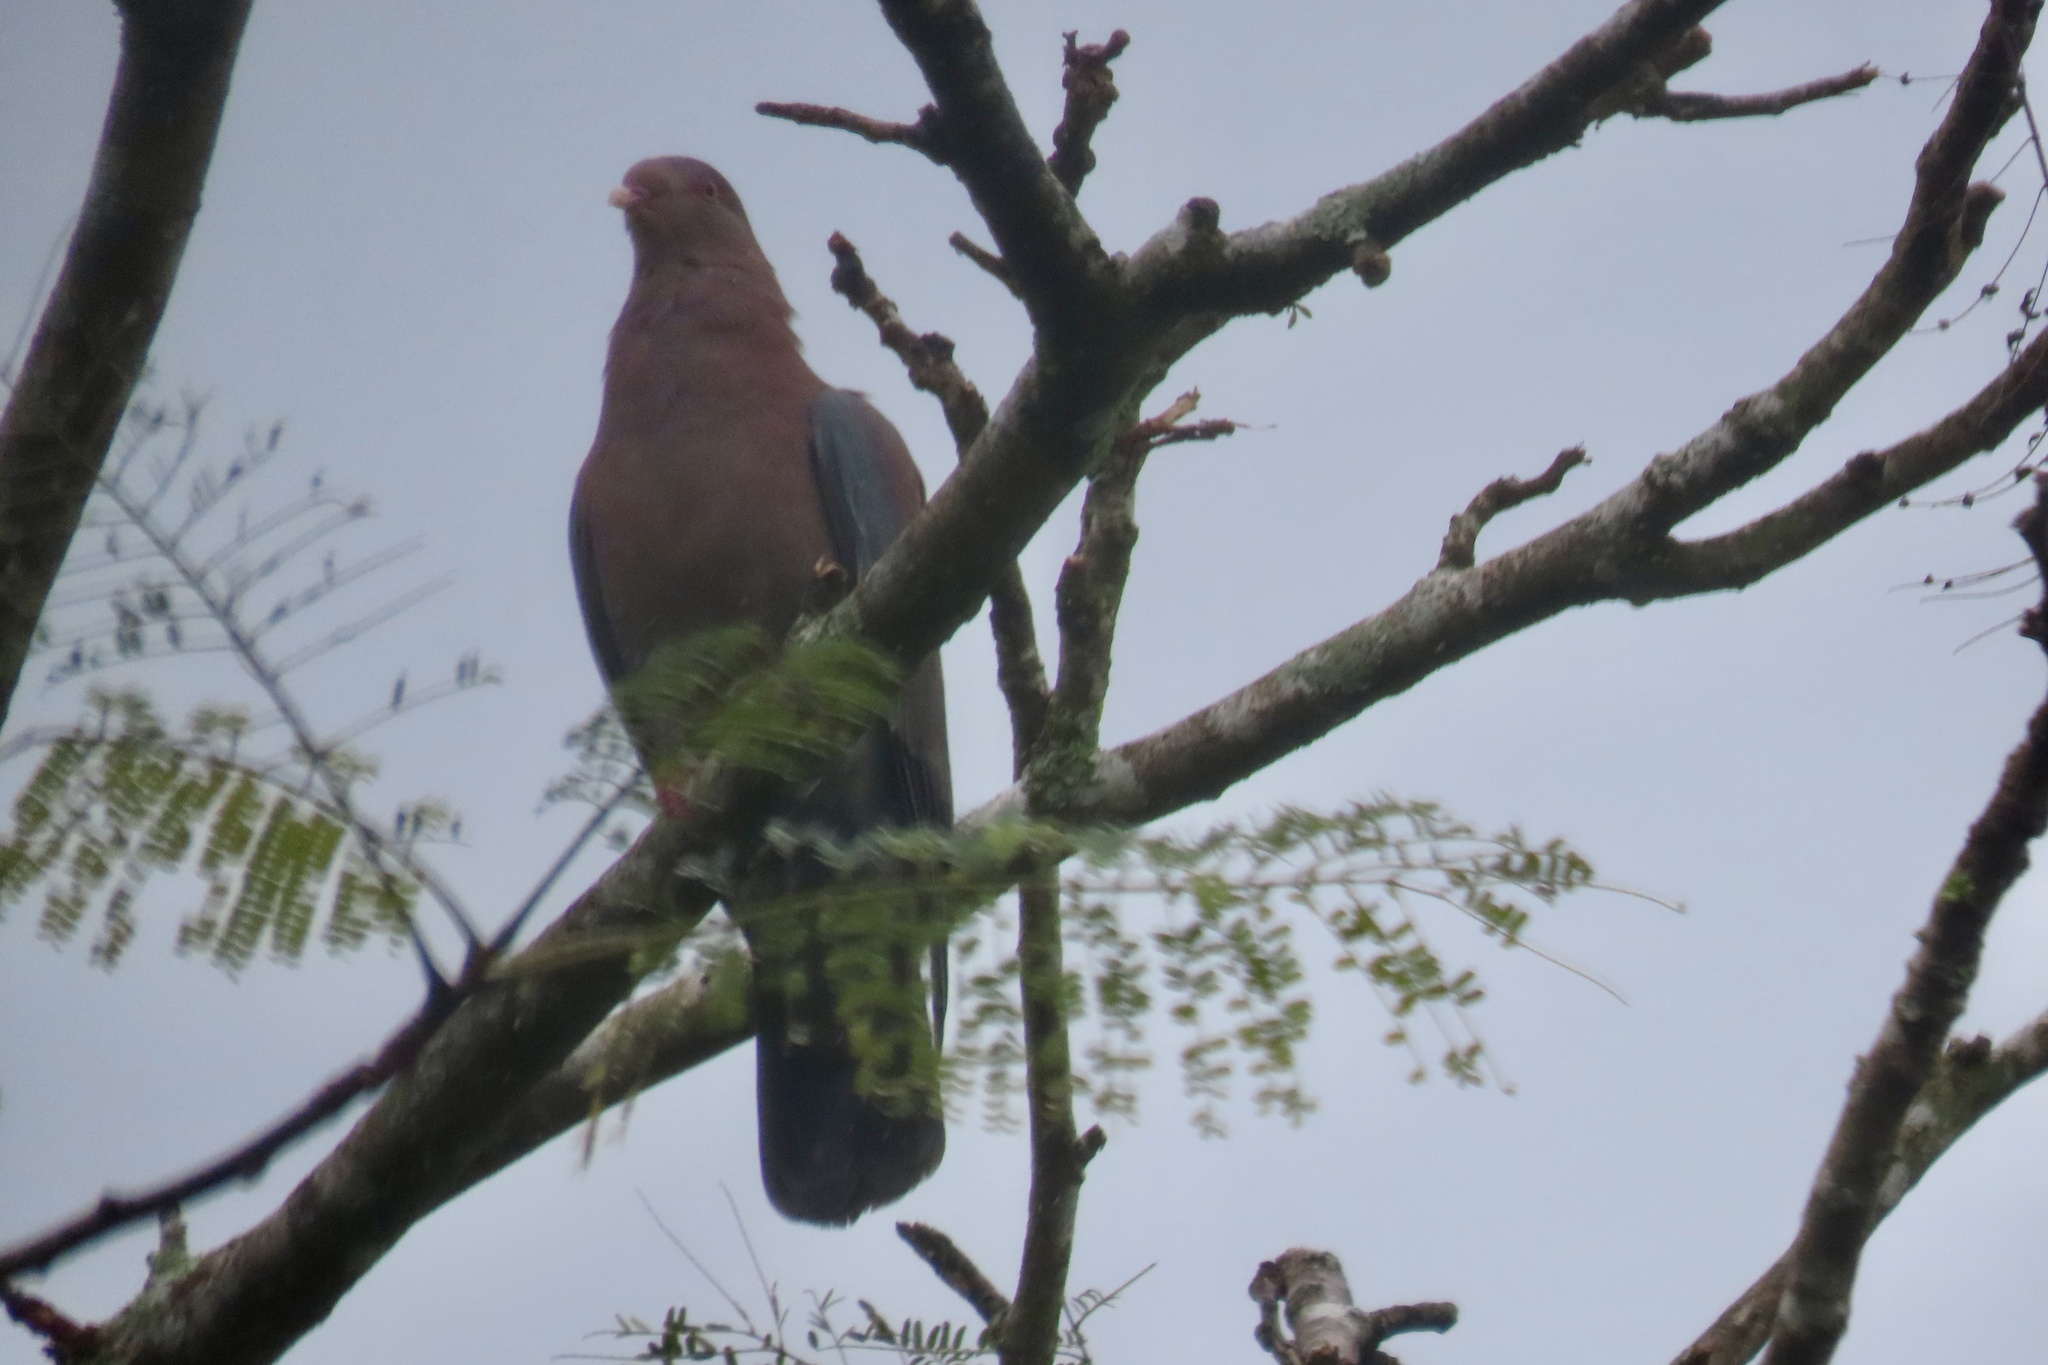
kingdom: Animalia
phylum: Chordata
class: Aves
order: Columbiformes
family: Columbidae
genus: Patagioenas
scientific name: Patagioenas flavirostris
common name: Red-billed pigeon
